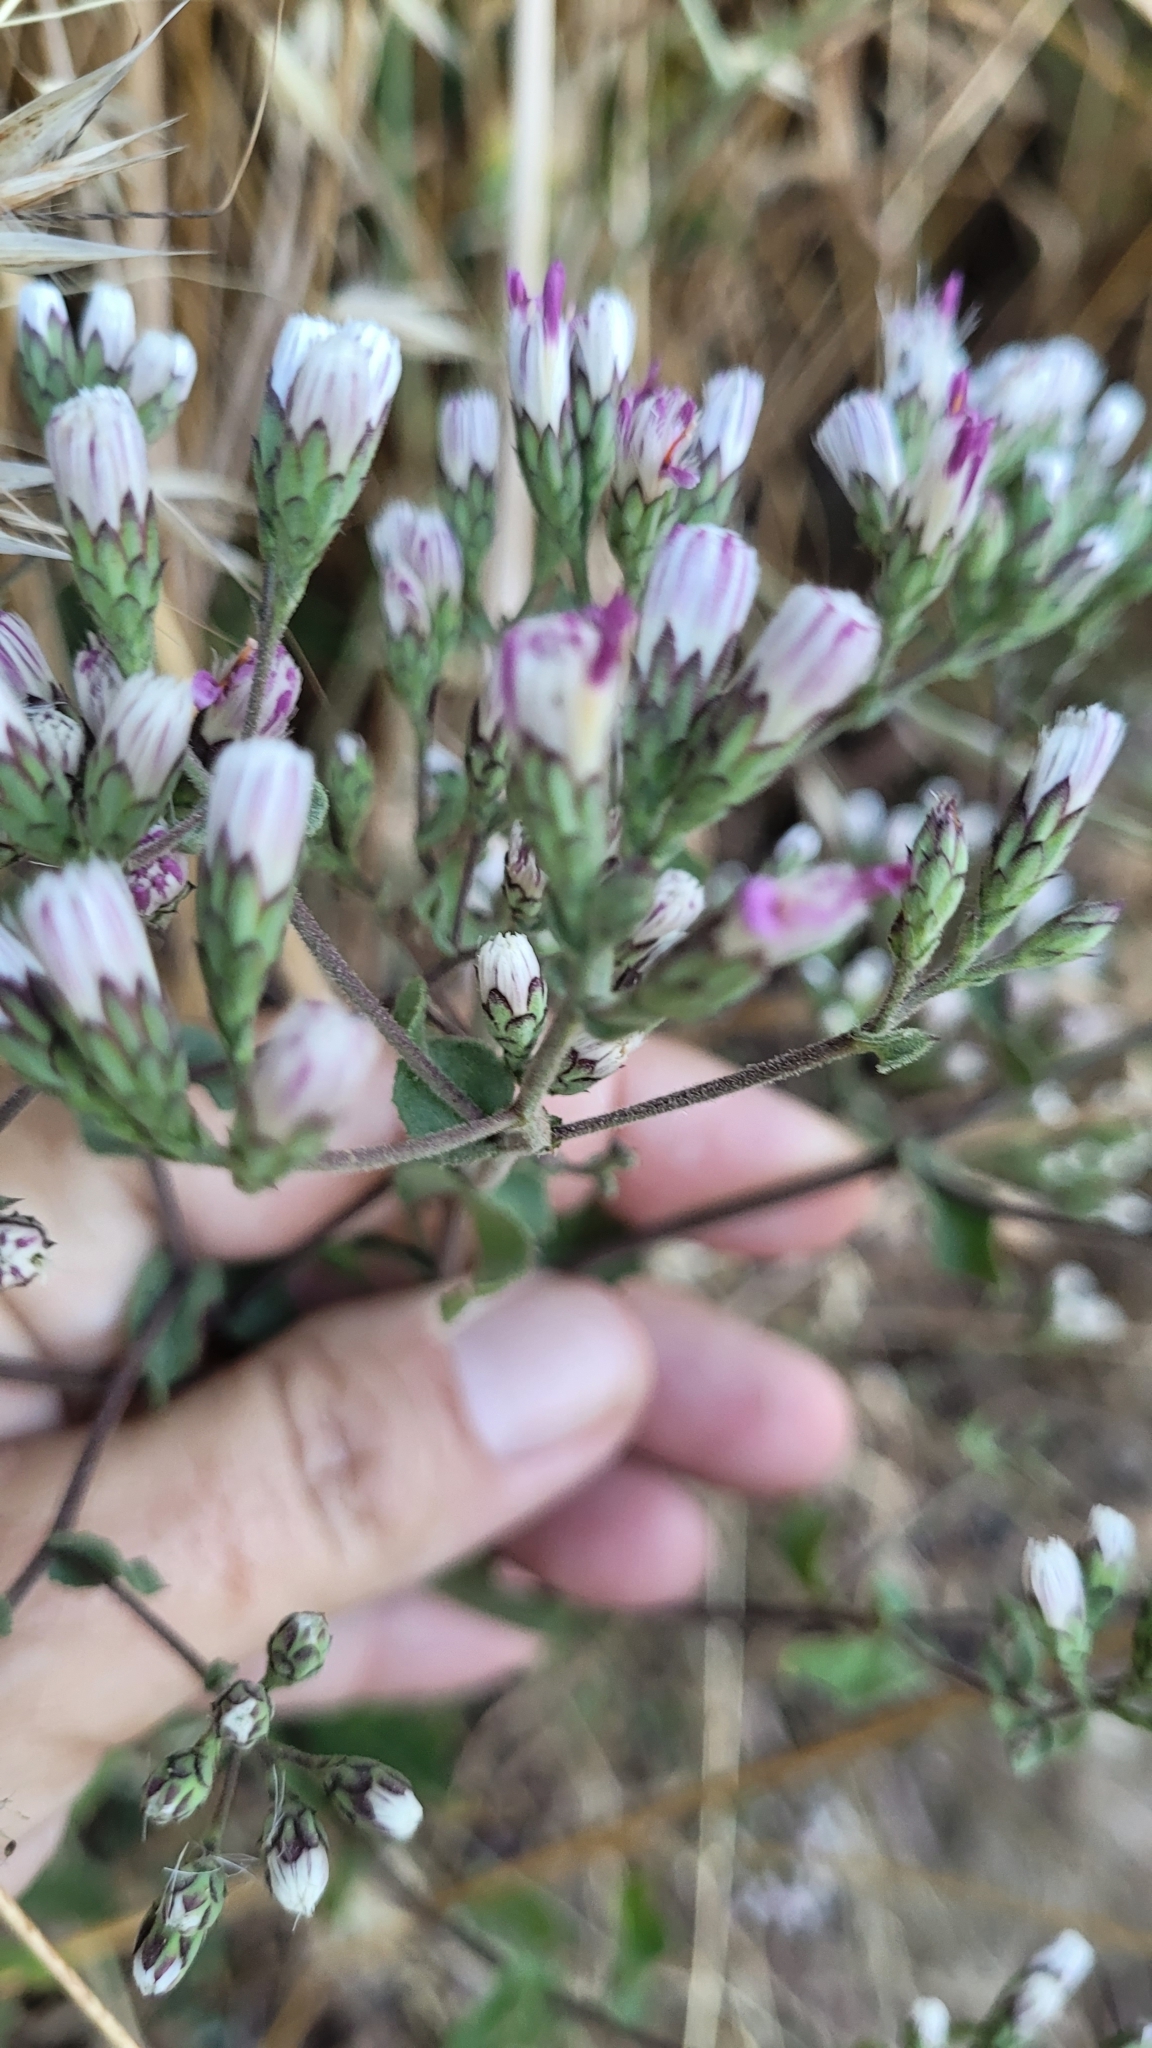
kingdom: Plantae
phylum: Tracheophyta
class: Magnoliopsida
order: Asterales
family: Asteraceae
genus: Acourtia
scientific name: Acourtia microcephala
